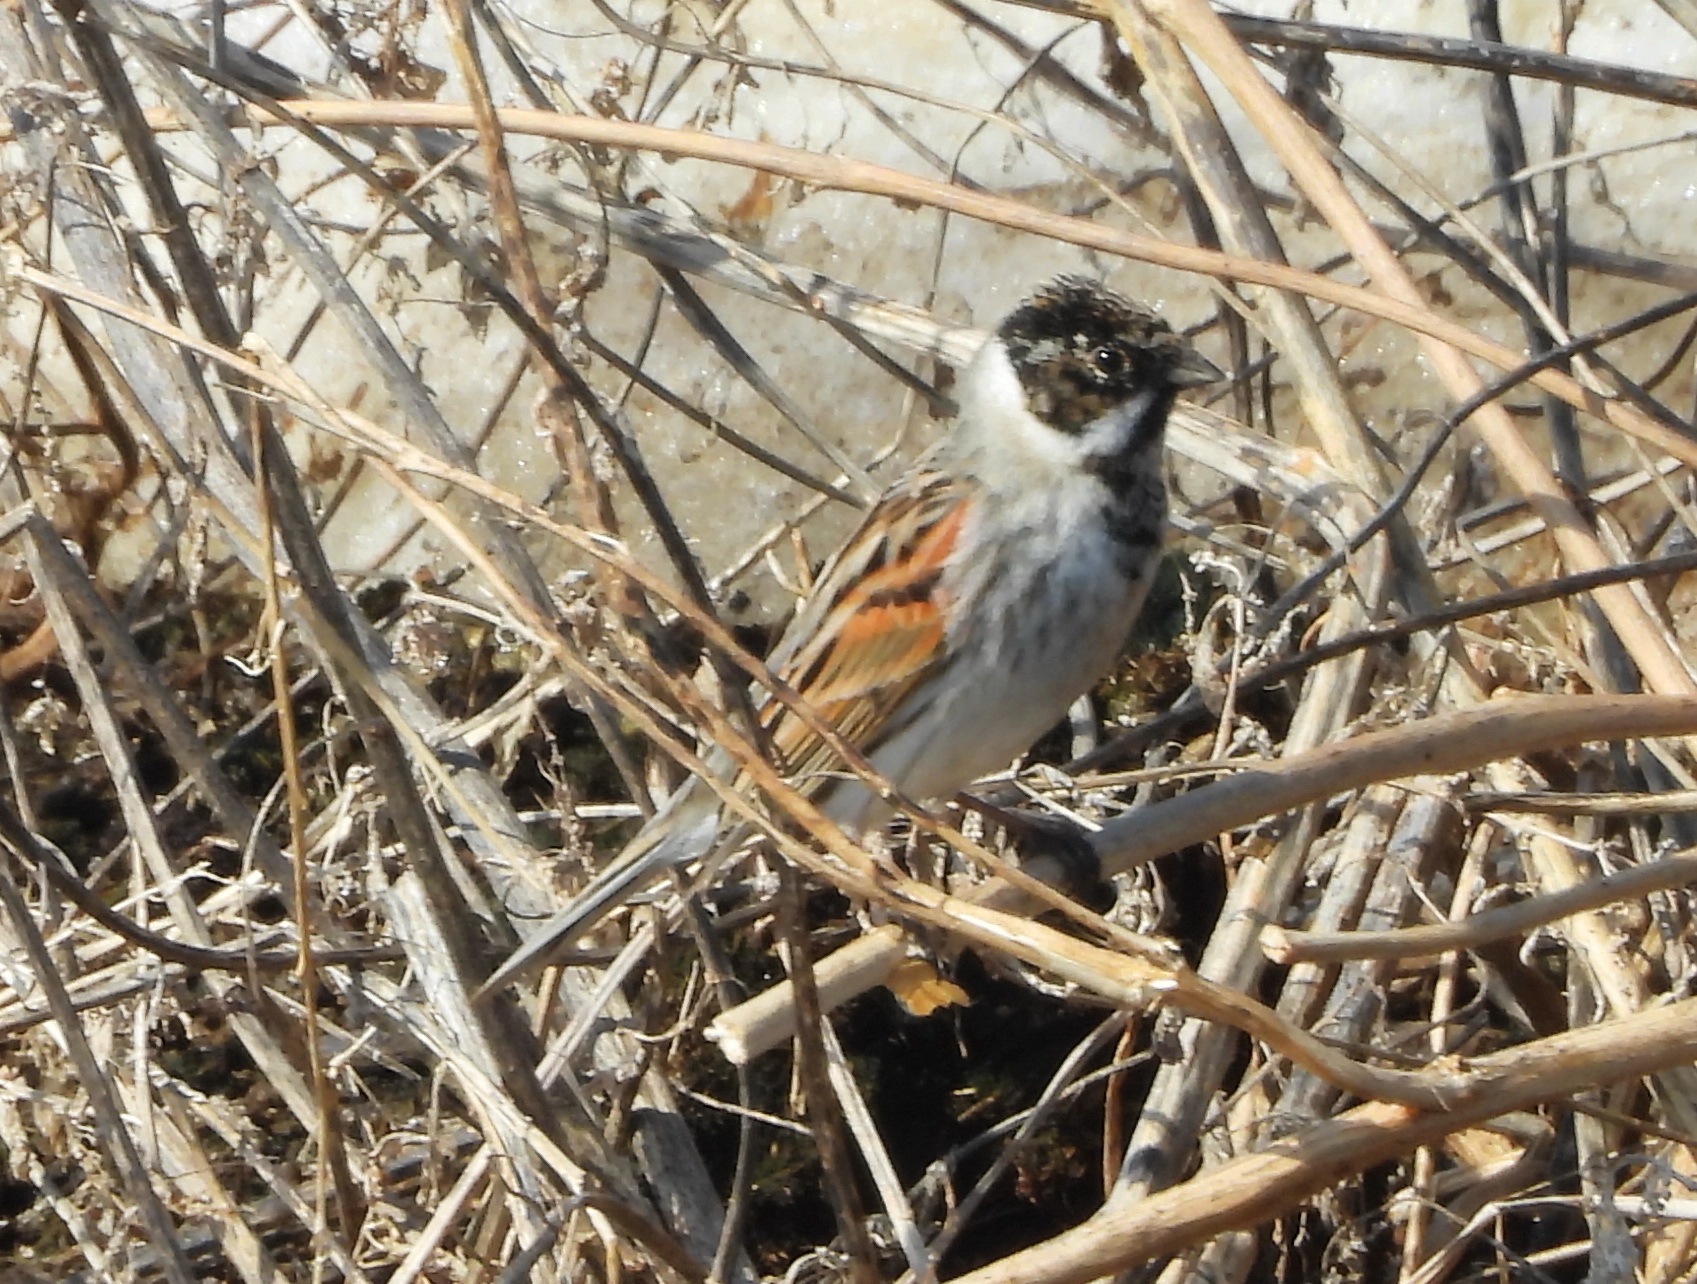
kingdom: Animalia
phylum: Chordata
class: Aves
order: Passeriformes
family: Emberizidae
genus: Emberiza
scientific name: Emberiza schoeniclus
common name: Reed bunting
